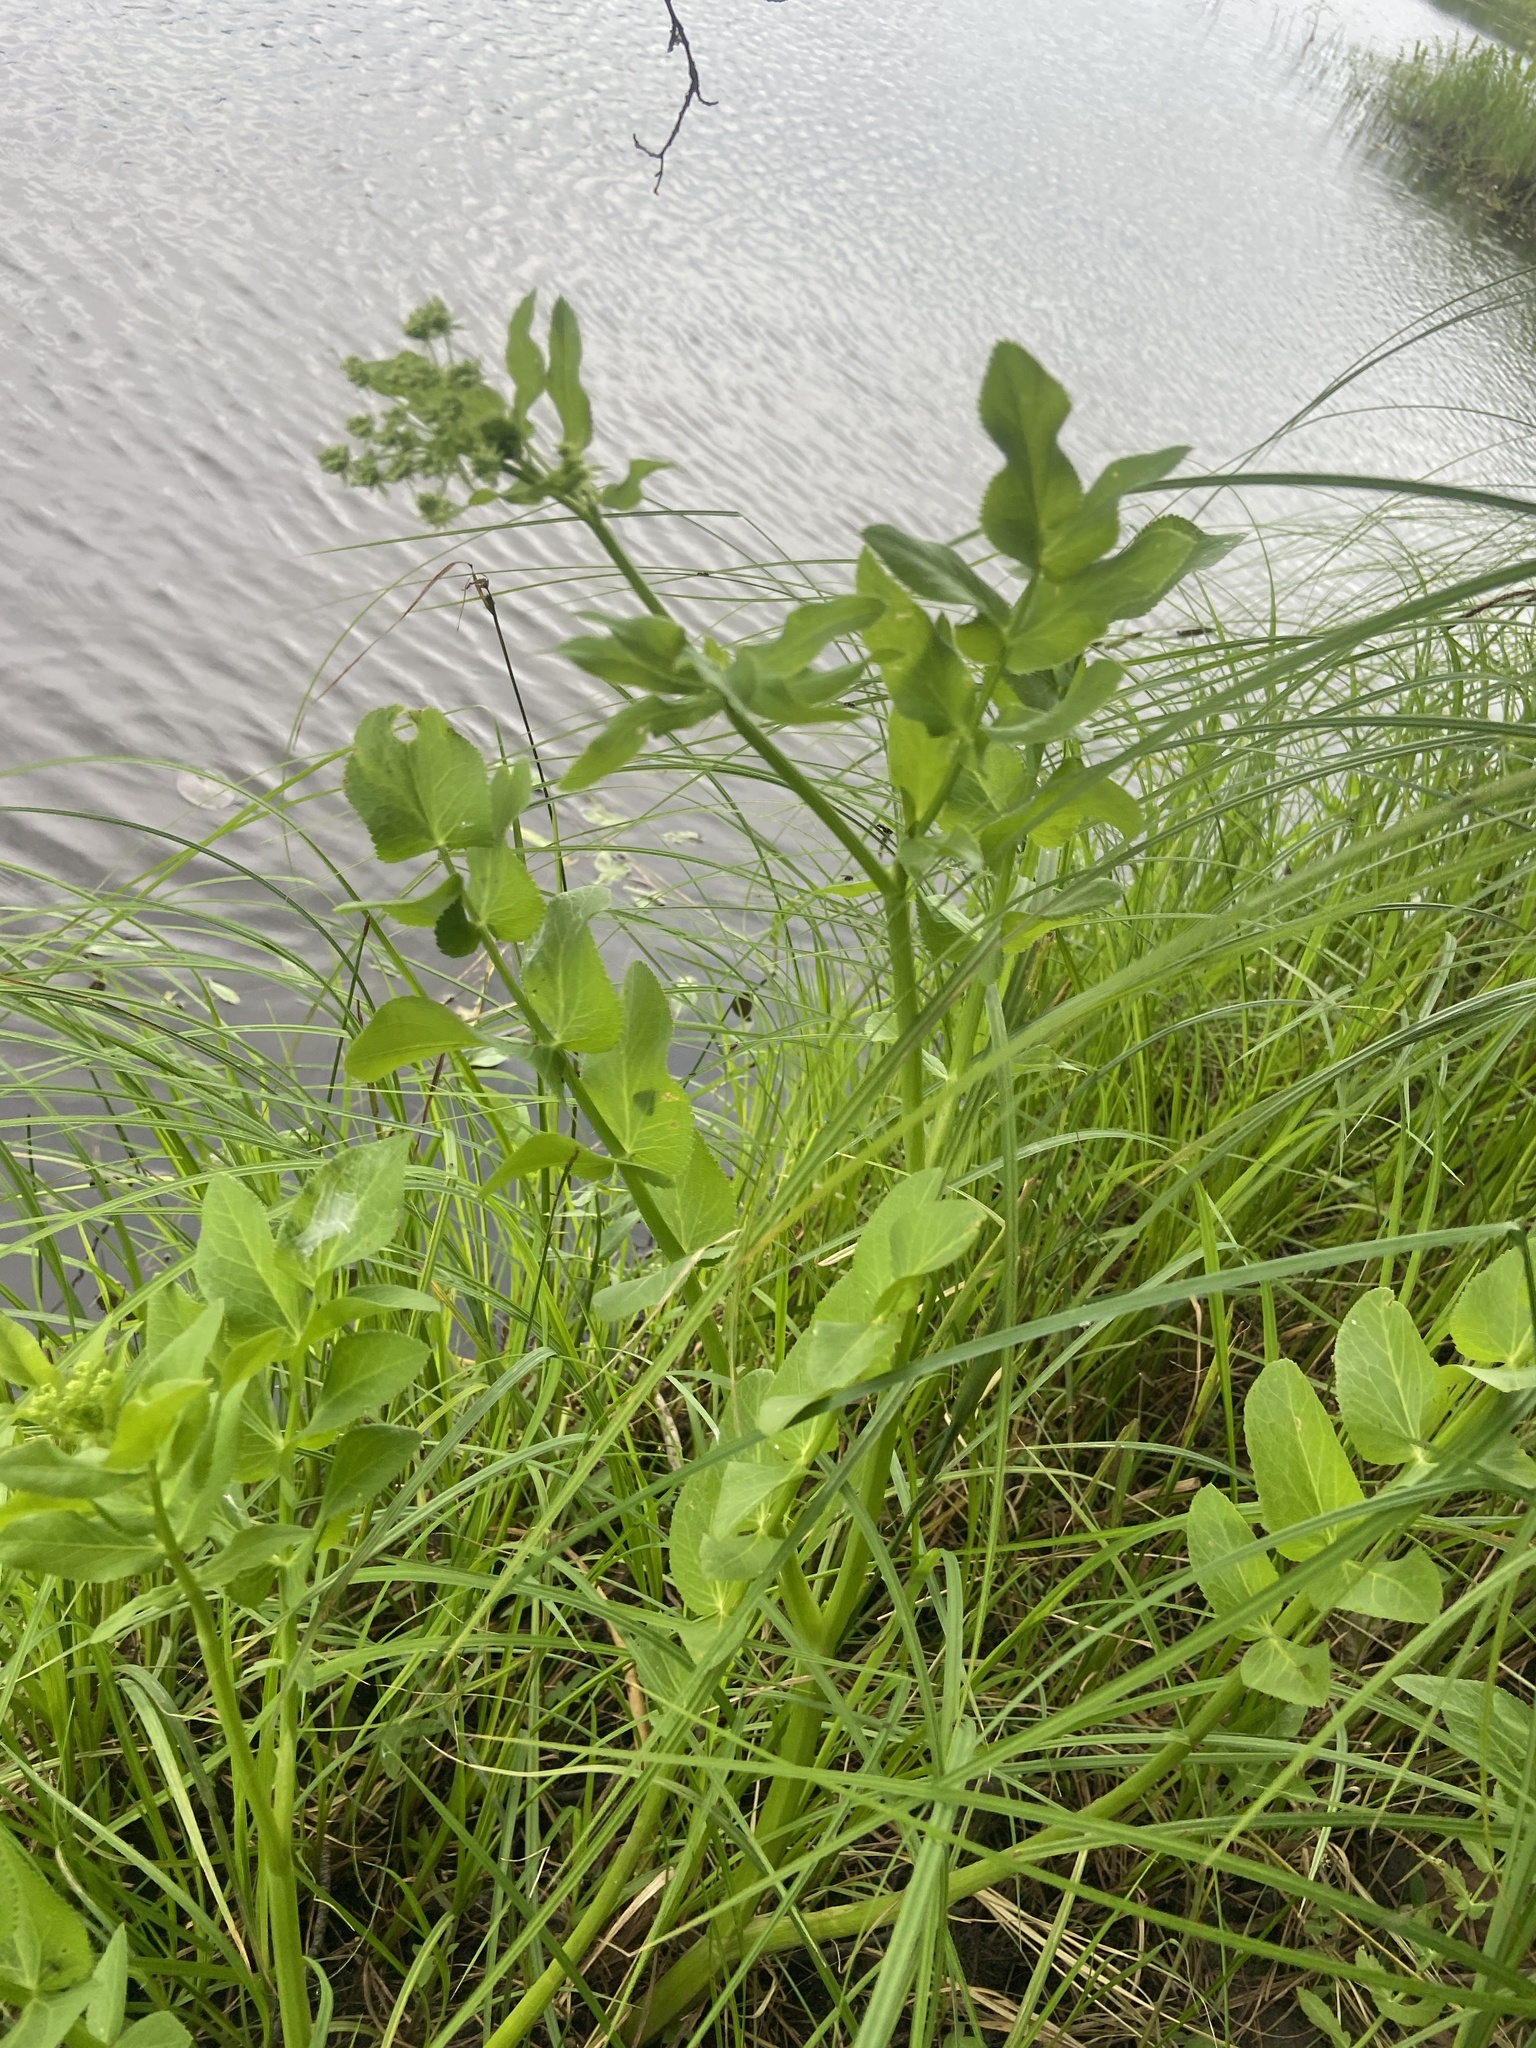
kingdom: Plantae
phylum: Tracheophyta
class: Magnoliopsida
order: Apiales
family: Apiaceae
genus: Sium
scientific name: Sium latifolium
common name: Greater water-parsnip
